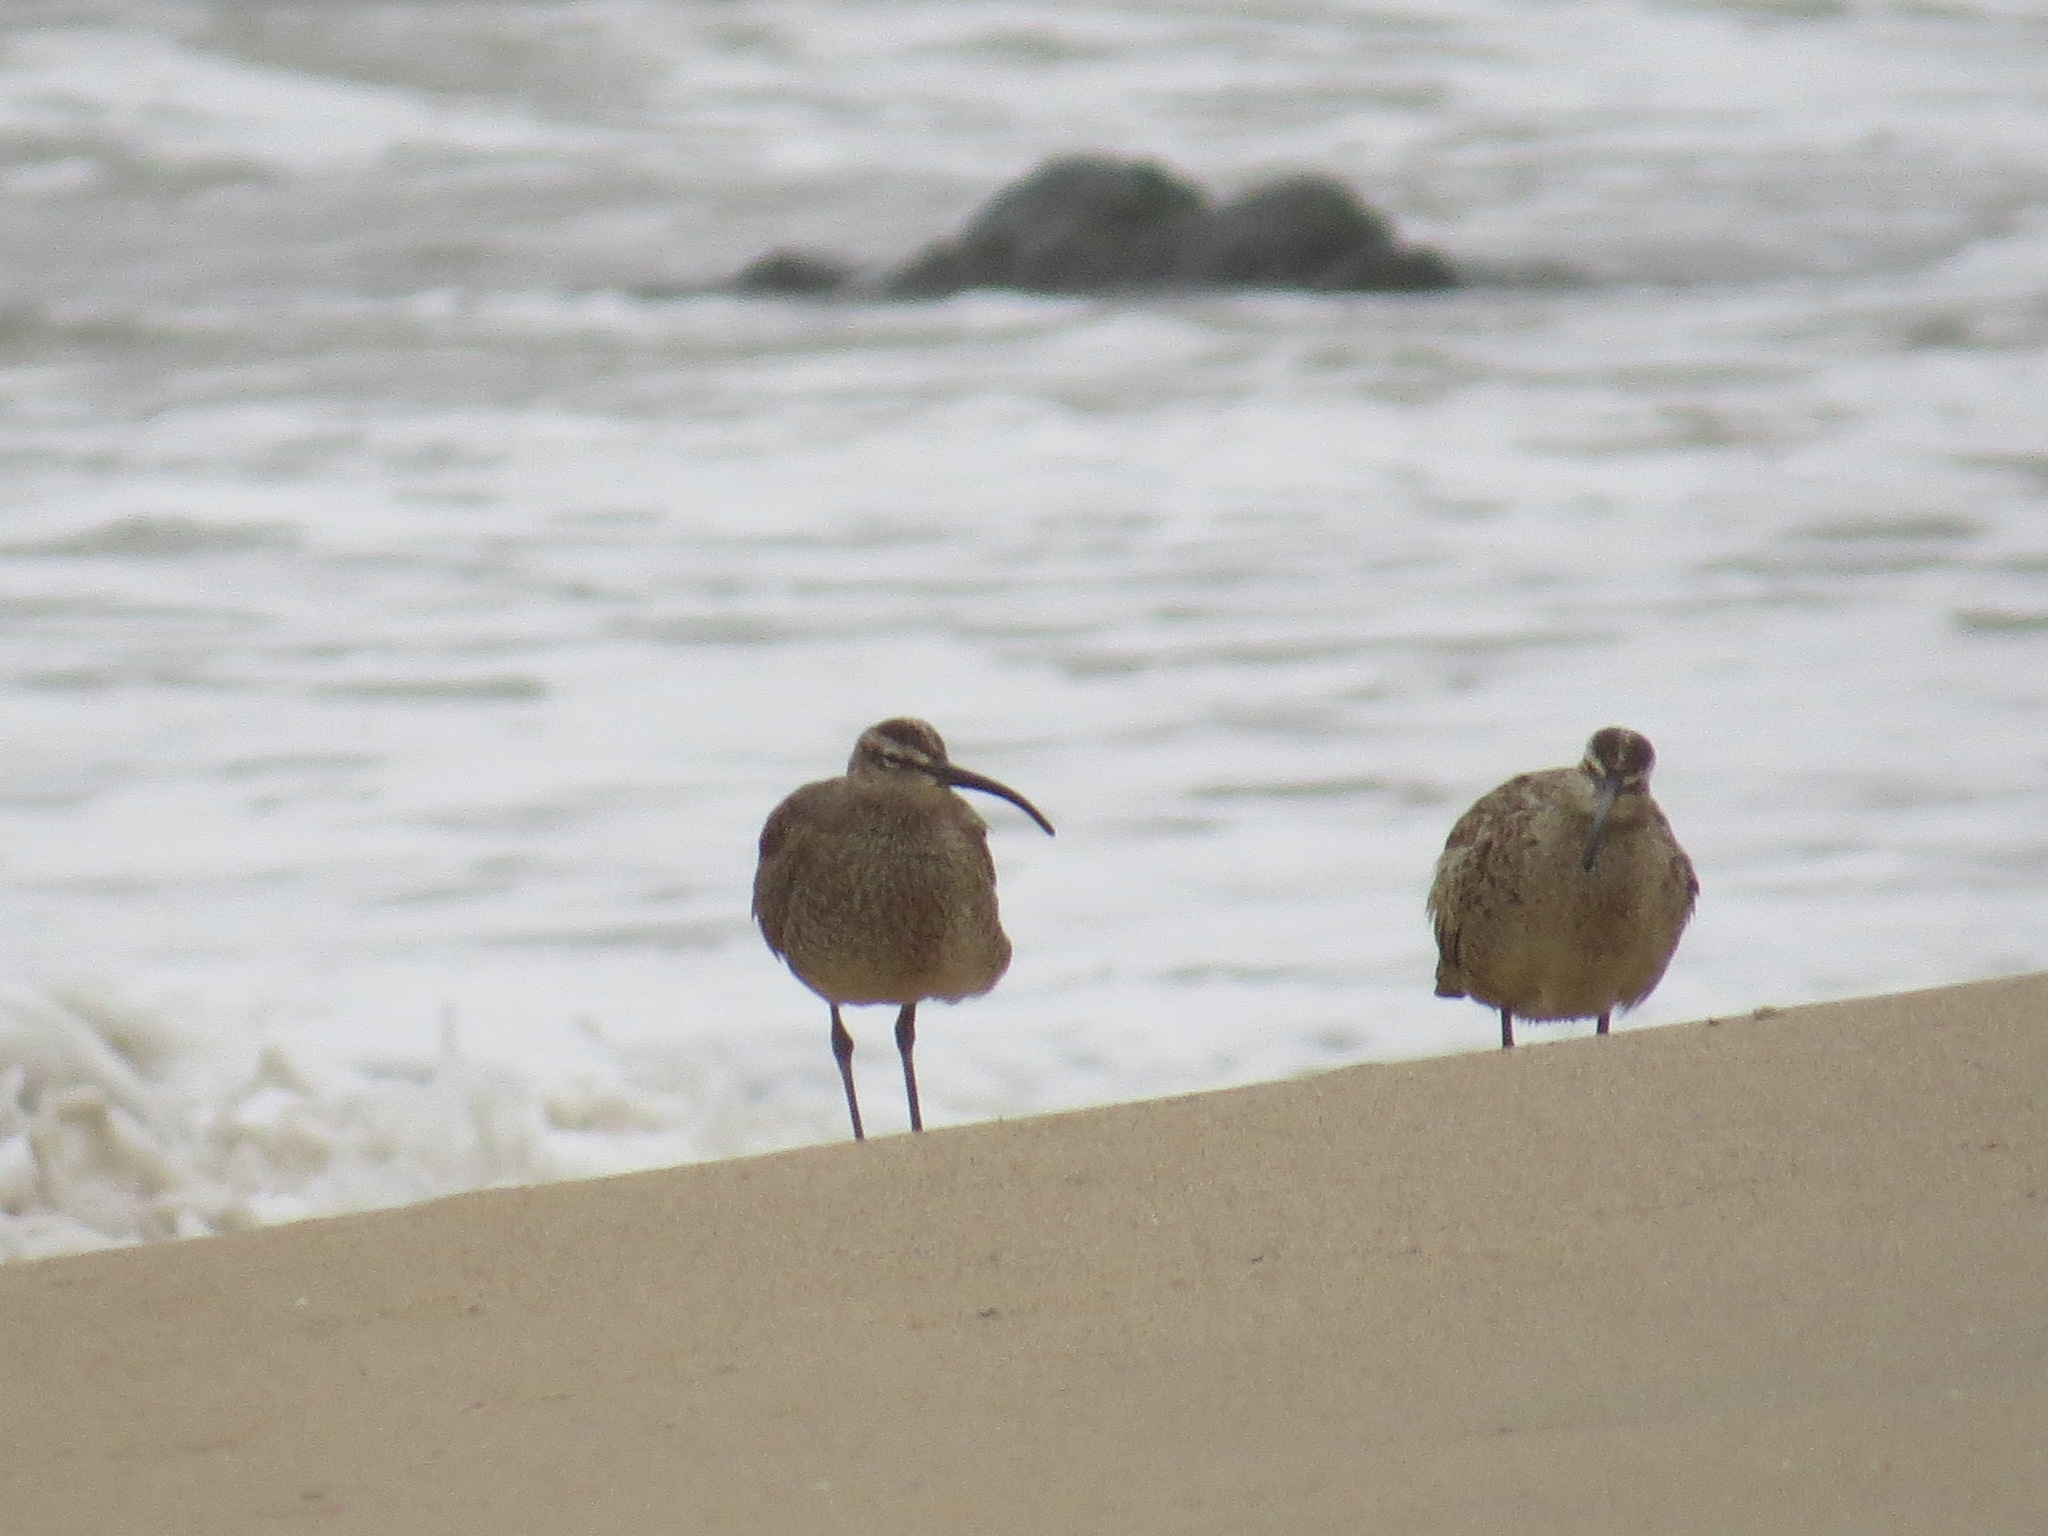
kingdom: Animalia
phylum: Chordata
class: Aves
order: Charadriiformes
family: Scolopacidae
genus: Numenius
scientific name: Numenius phaeopus
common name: Whimbrel
